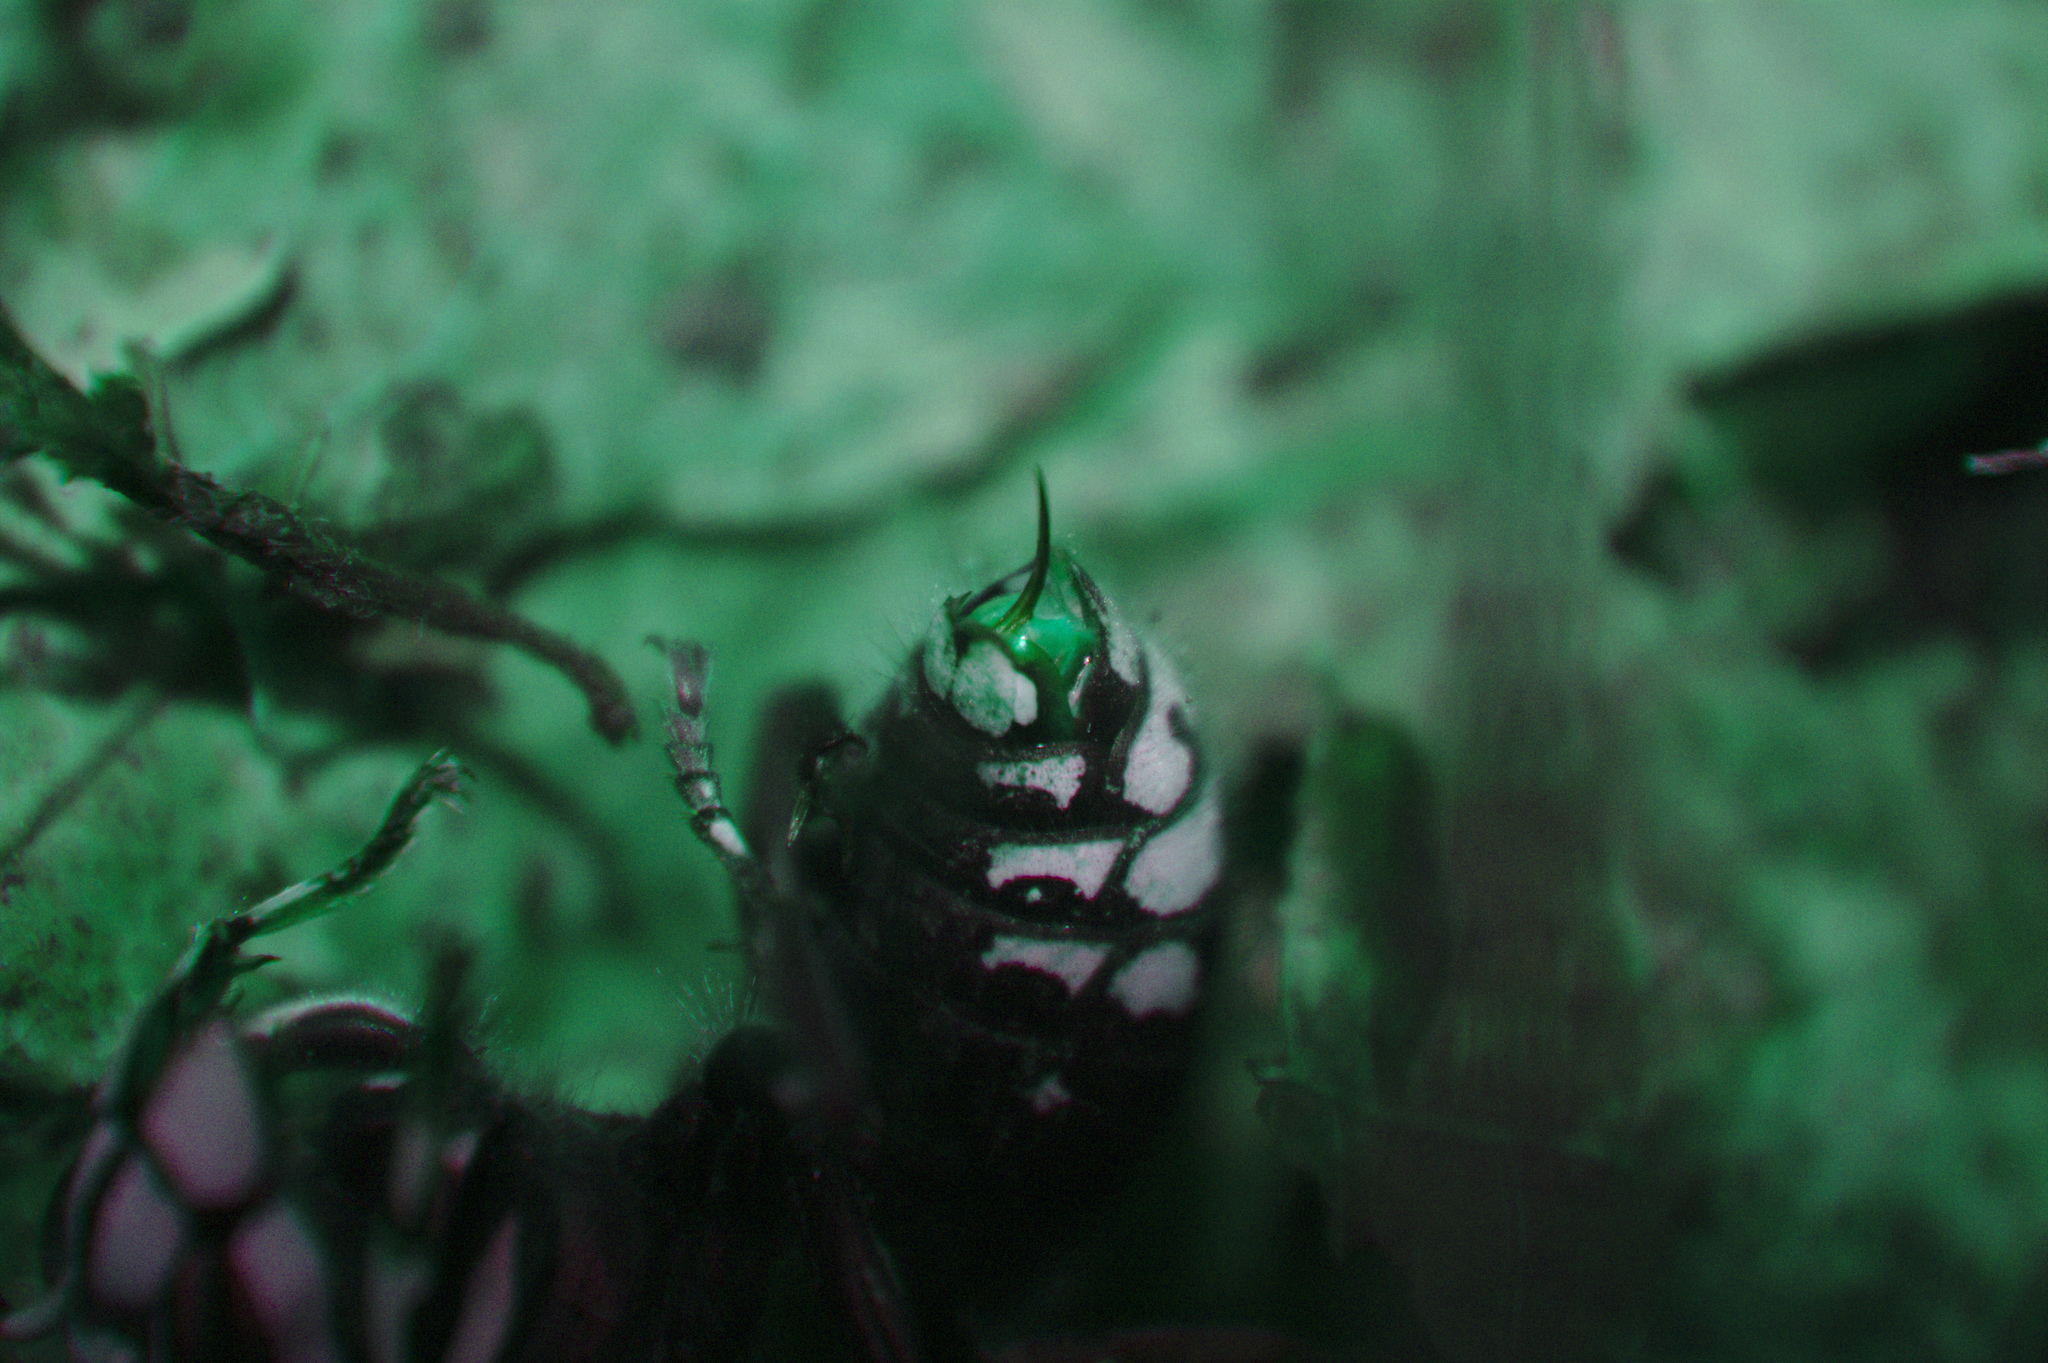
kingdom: Animalia
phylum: Arthropoda
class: Insecta
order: Hymenoptera
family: Vespidae
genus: Dolichovespula
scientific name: Dolichovespula maculata
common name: Bald-faced hornet
